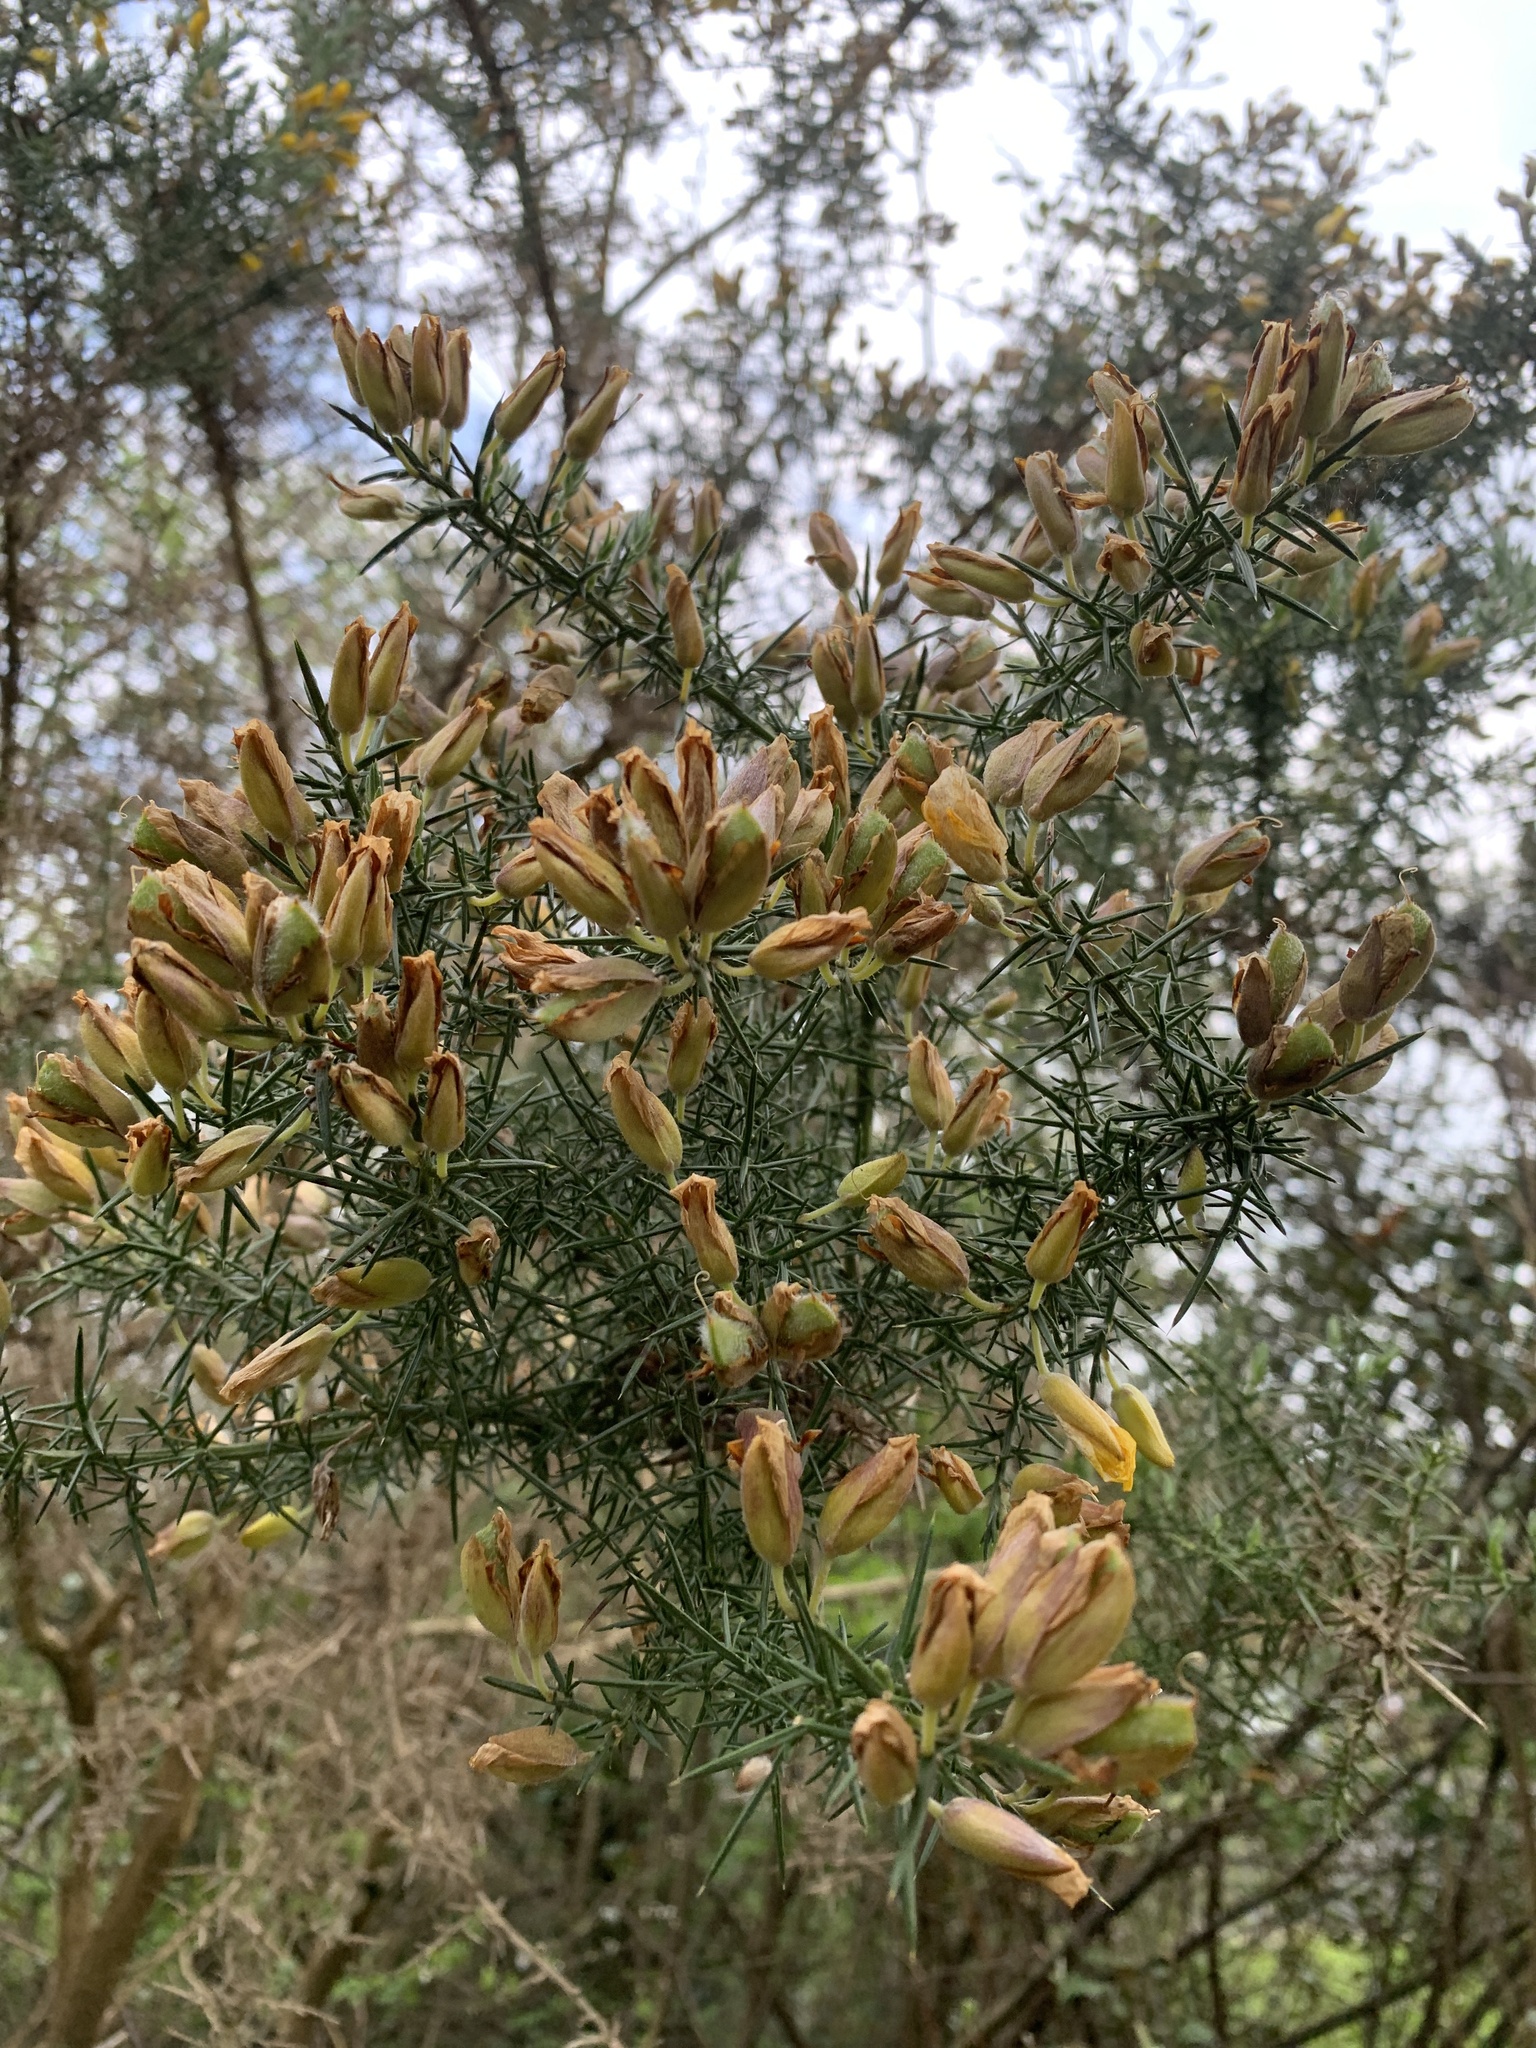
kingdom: Plantae
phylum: Tracheophyta
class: Magnoliopsida
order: Fabales
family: Fabaceae
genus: Ulex
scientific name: Ulex europaeus
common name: Common gorse
